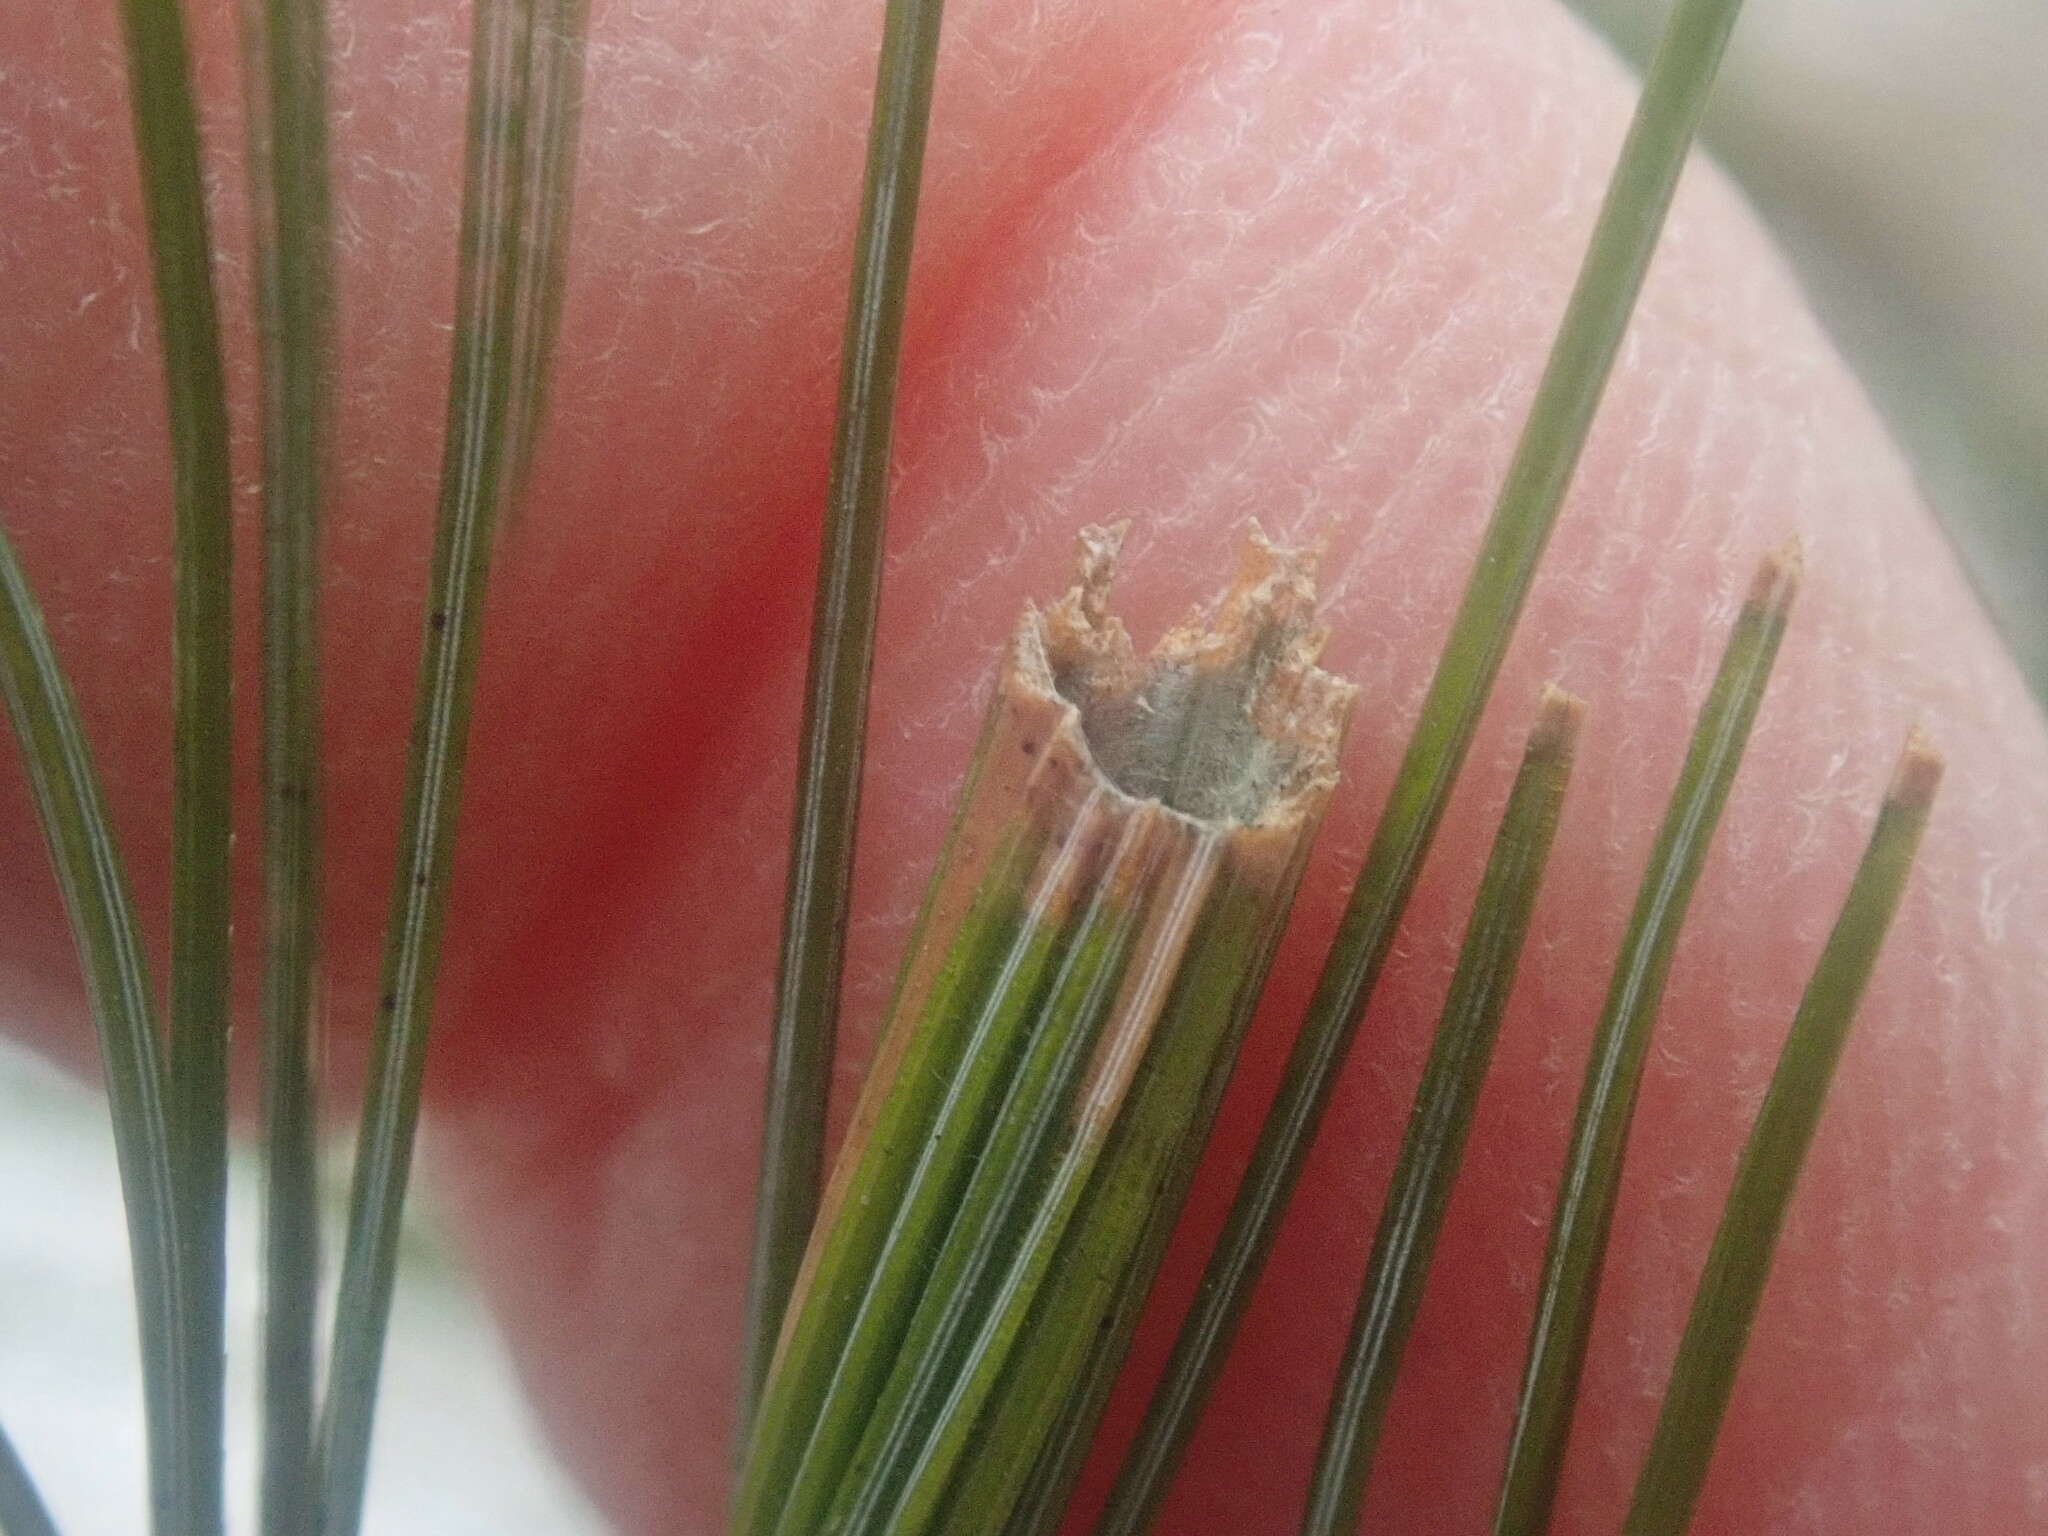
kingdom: Animalia
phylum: Arthropoda
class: Insecta
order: Lepidoptera
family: Tortricidae
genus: Argyrotaenia
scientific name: Argyrotaenia pinatubana
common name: Pine tube moth
